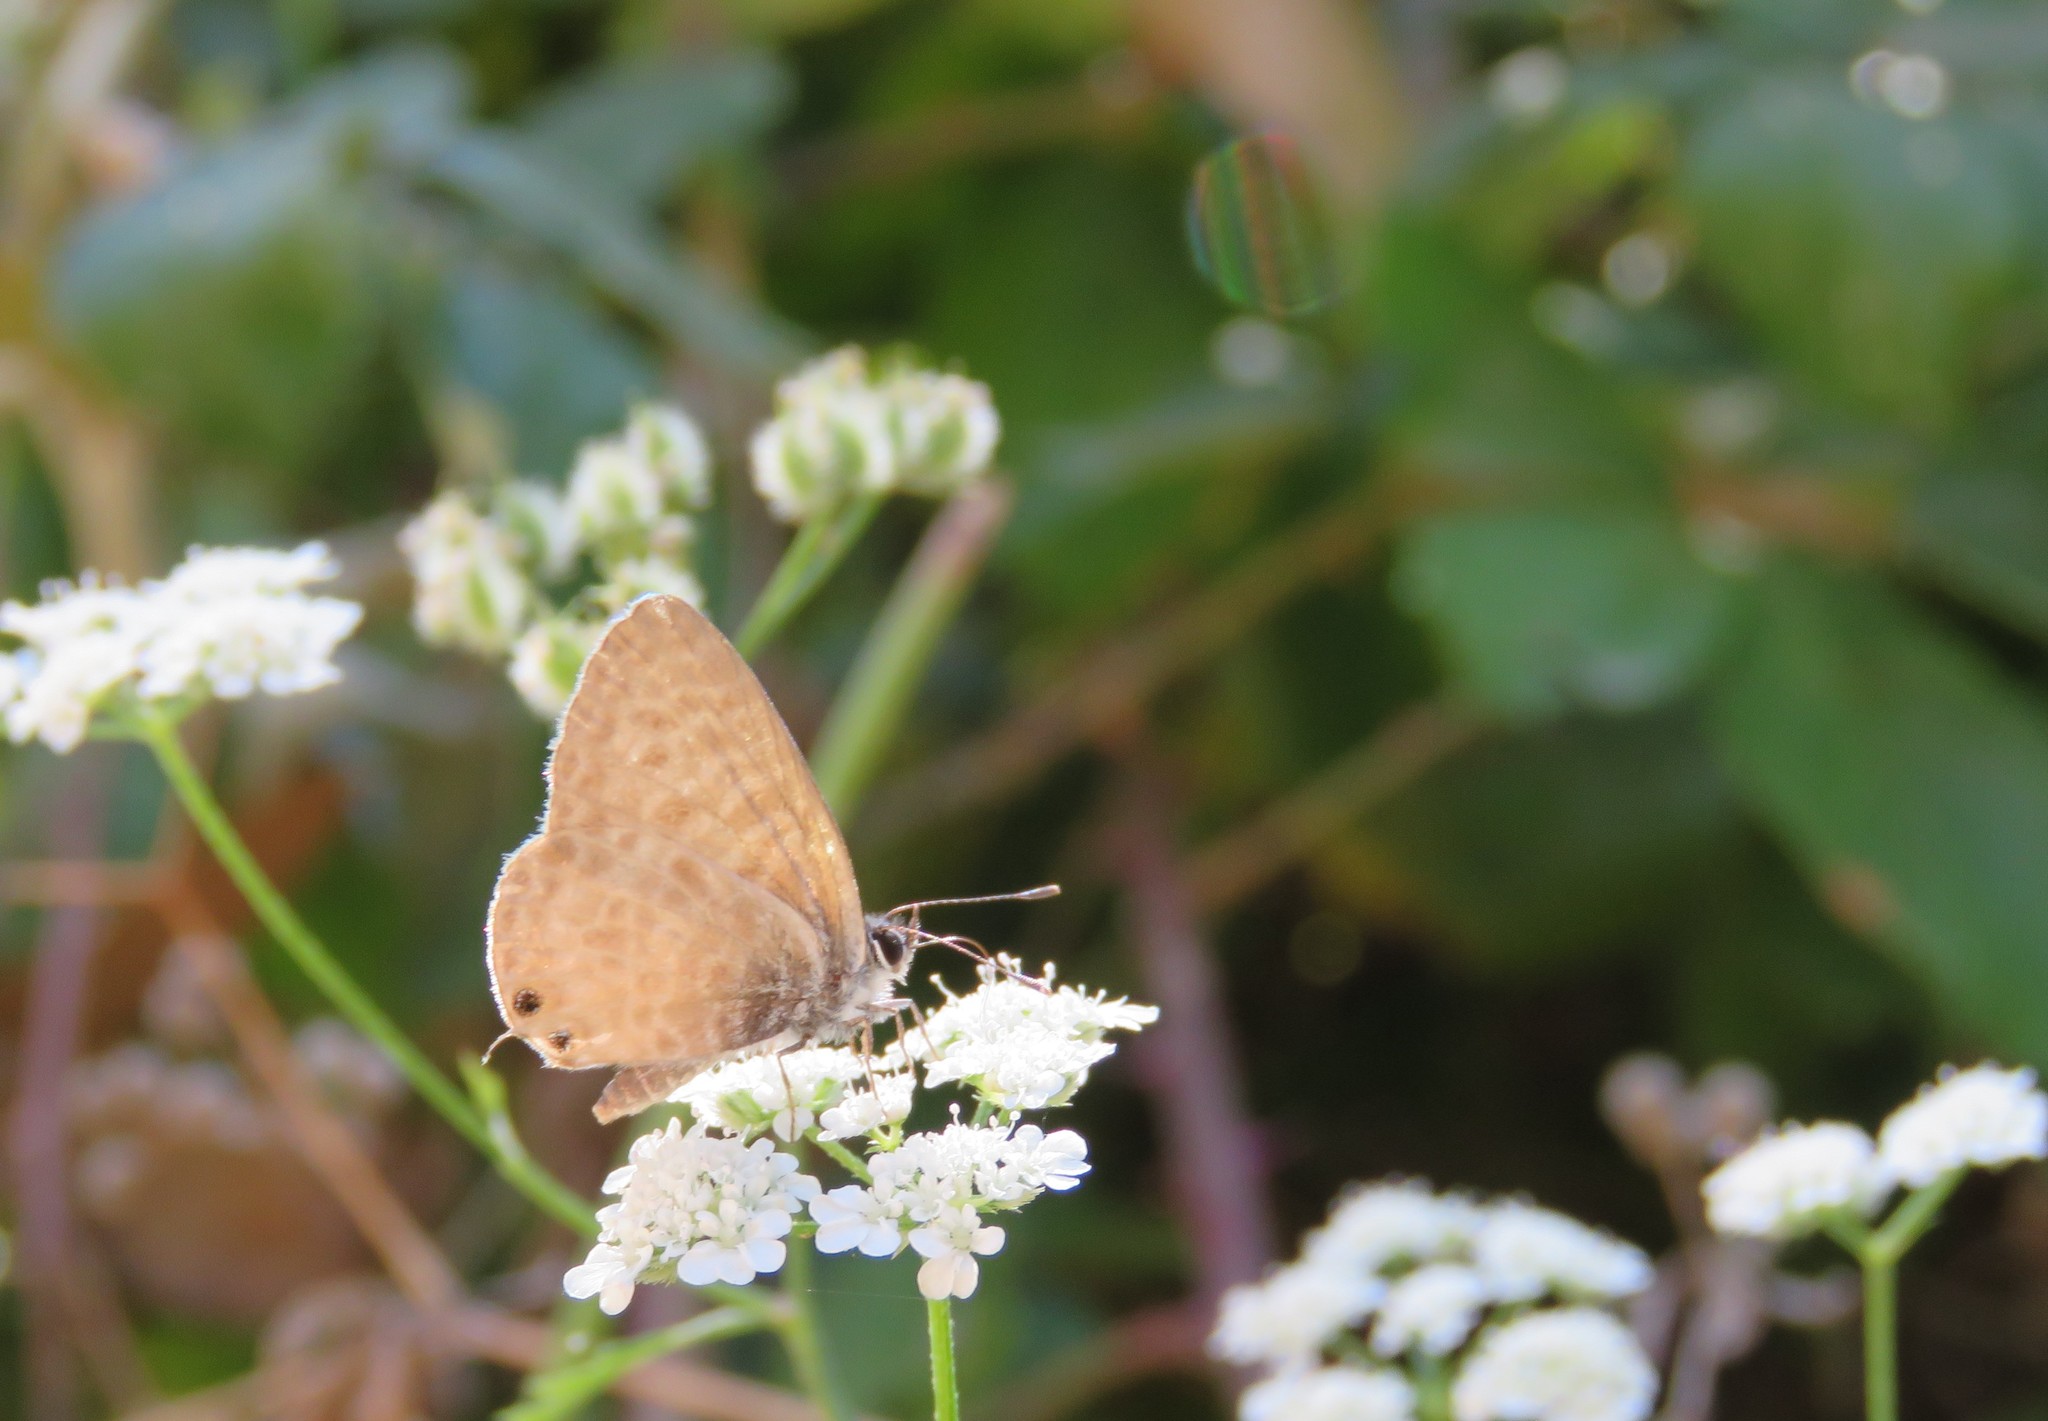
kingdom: Animalia
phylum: Arthropoda
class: Insecta
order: Lepidoptera
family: Lycaenidae
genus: Leptotes
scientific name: Leptotes pirithous
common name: Lang's short-tailed blue
